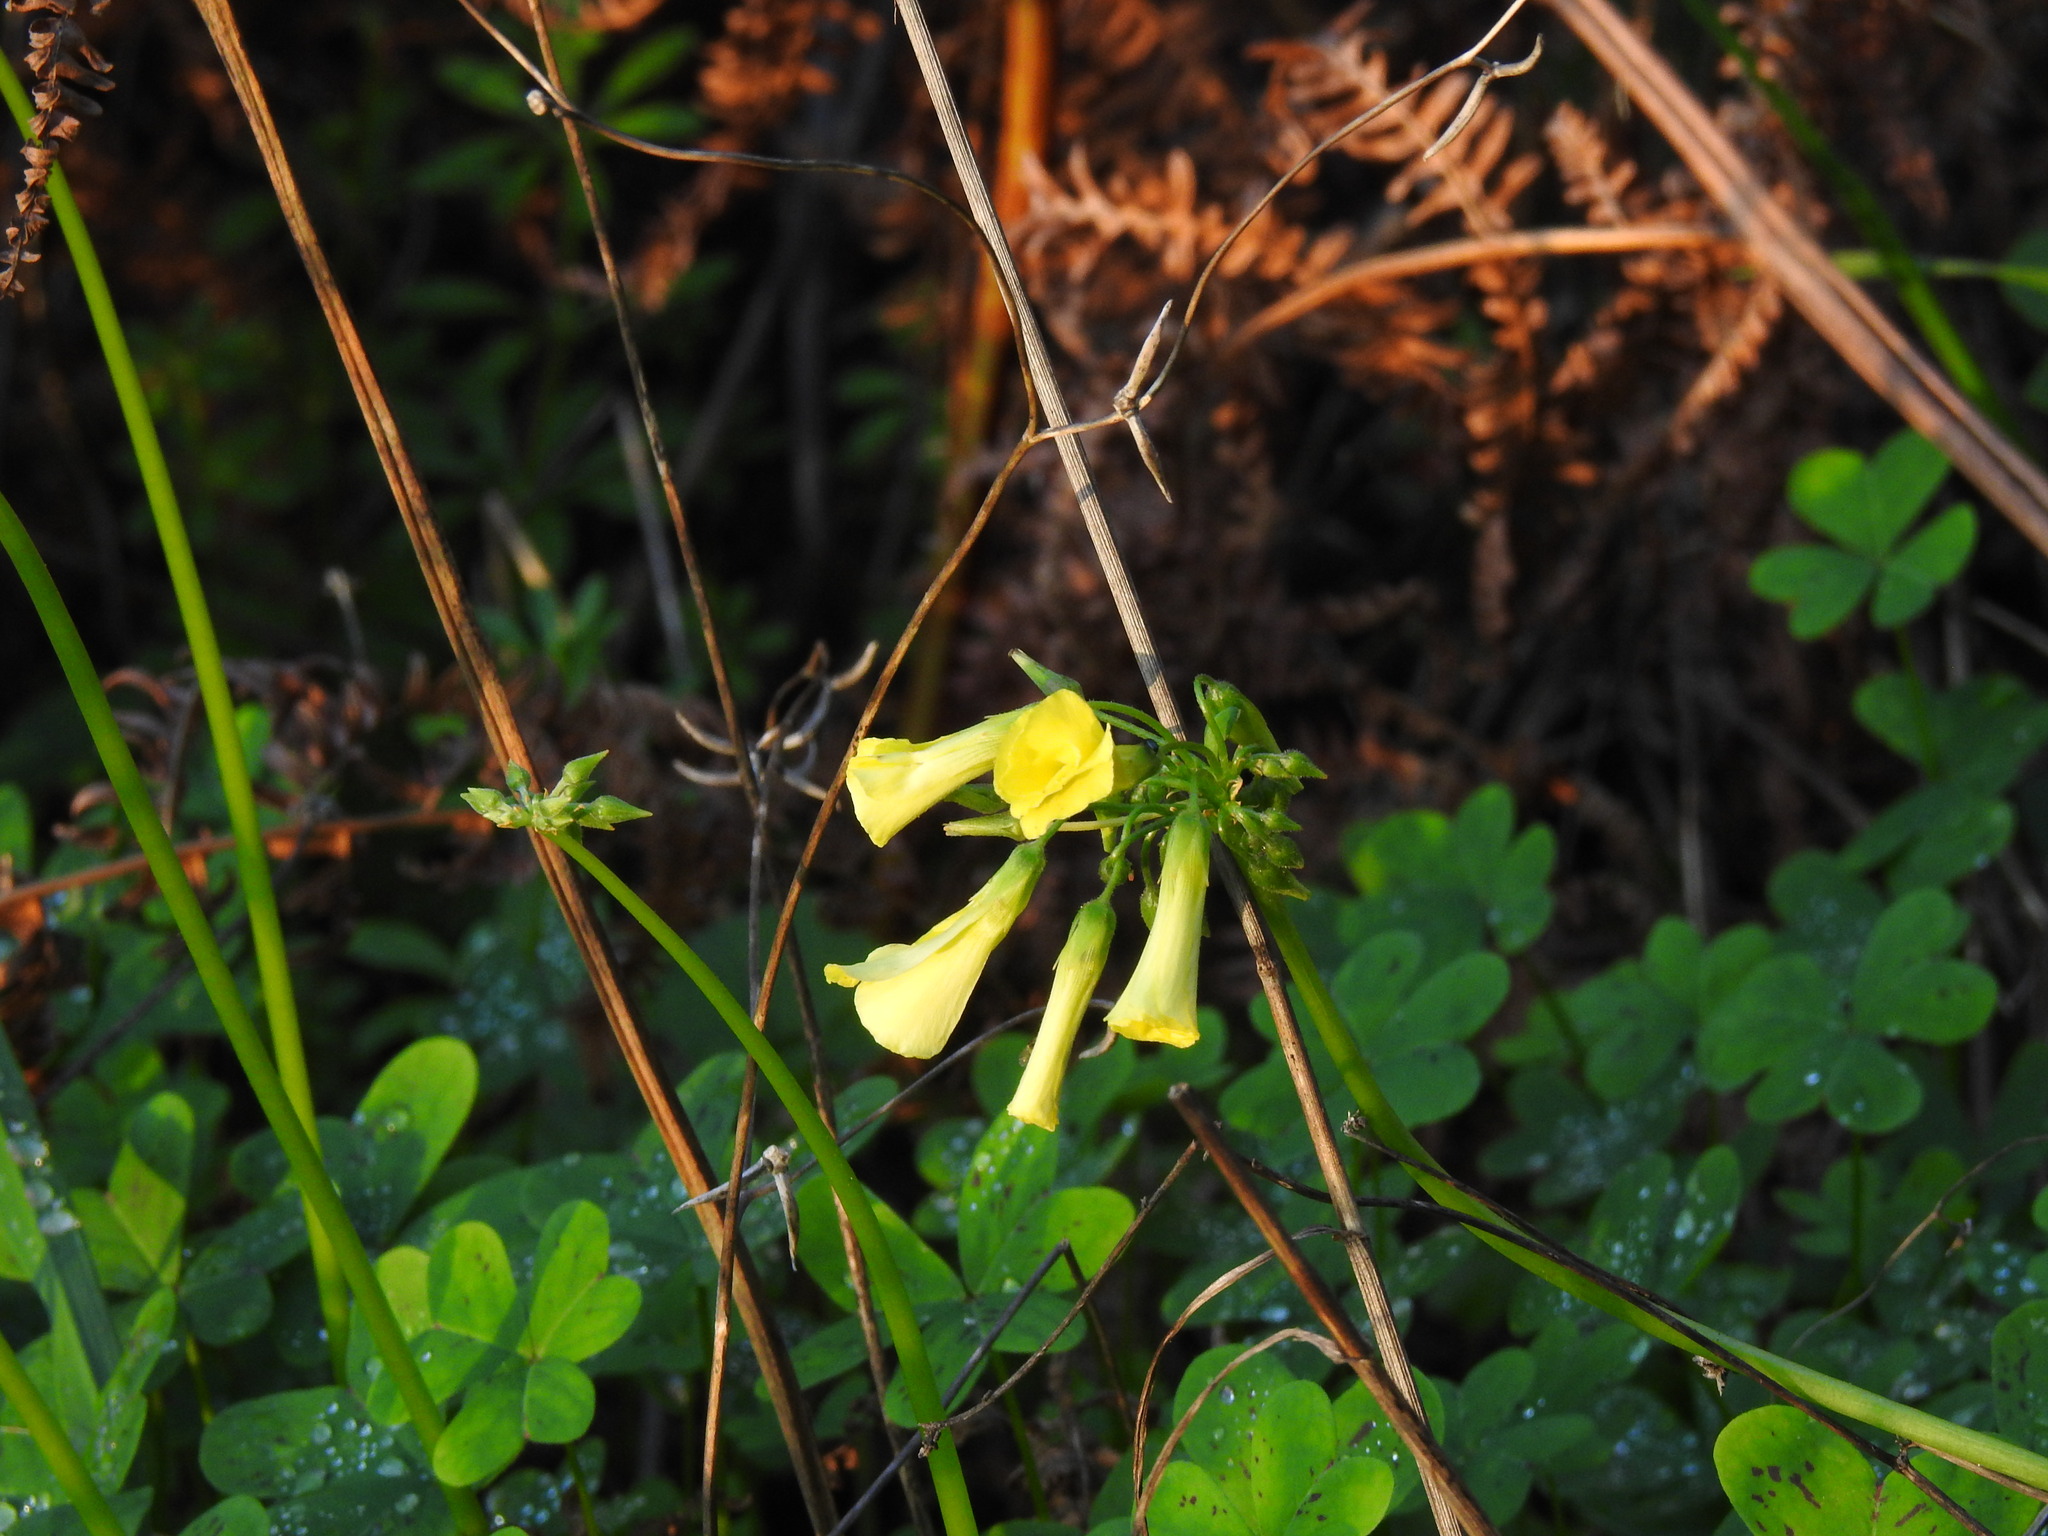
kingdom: Plantae
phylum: Tracheophyta
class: Magnoliopsida
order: Oxalidales
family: Oxalidaceae
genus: Oxalis
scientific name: Oxalis pes-caprae
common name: Bermuda-buttercup
